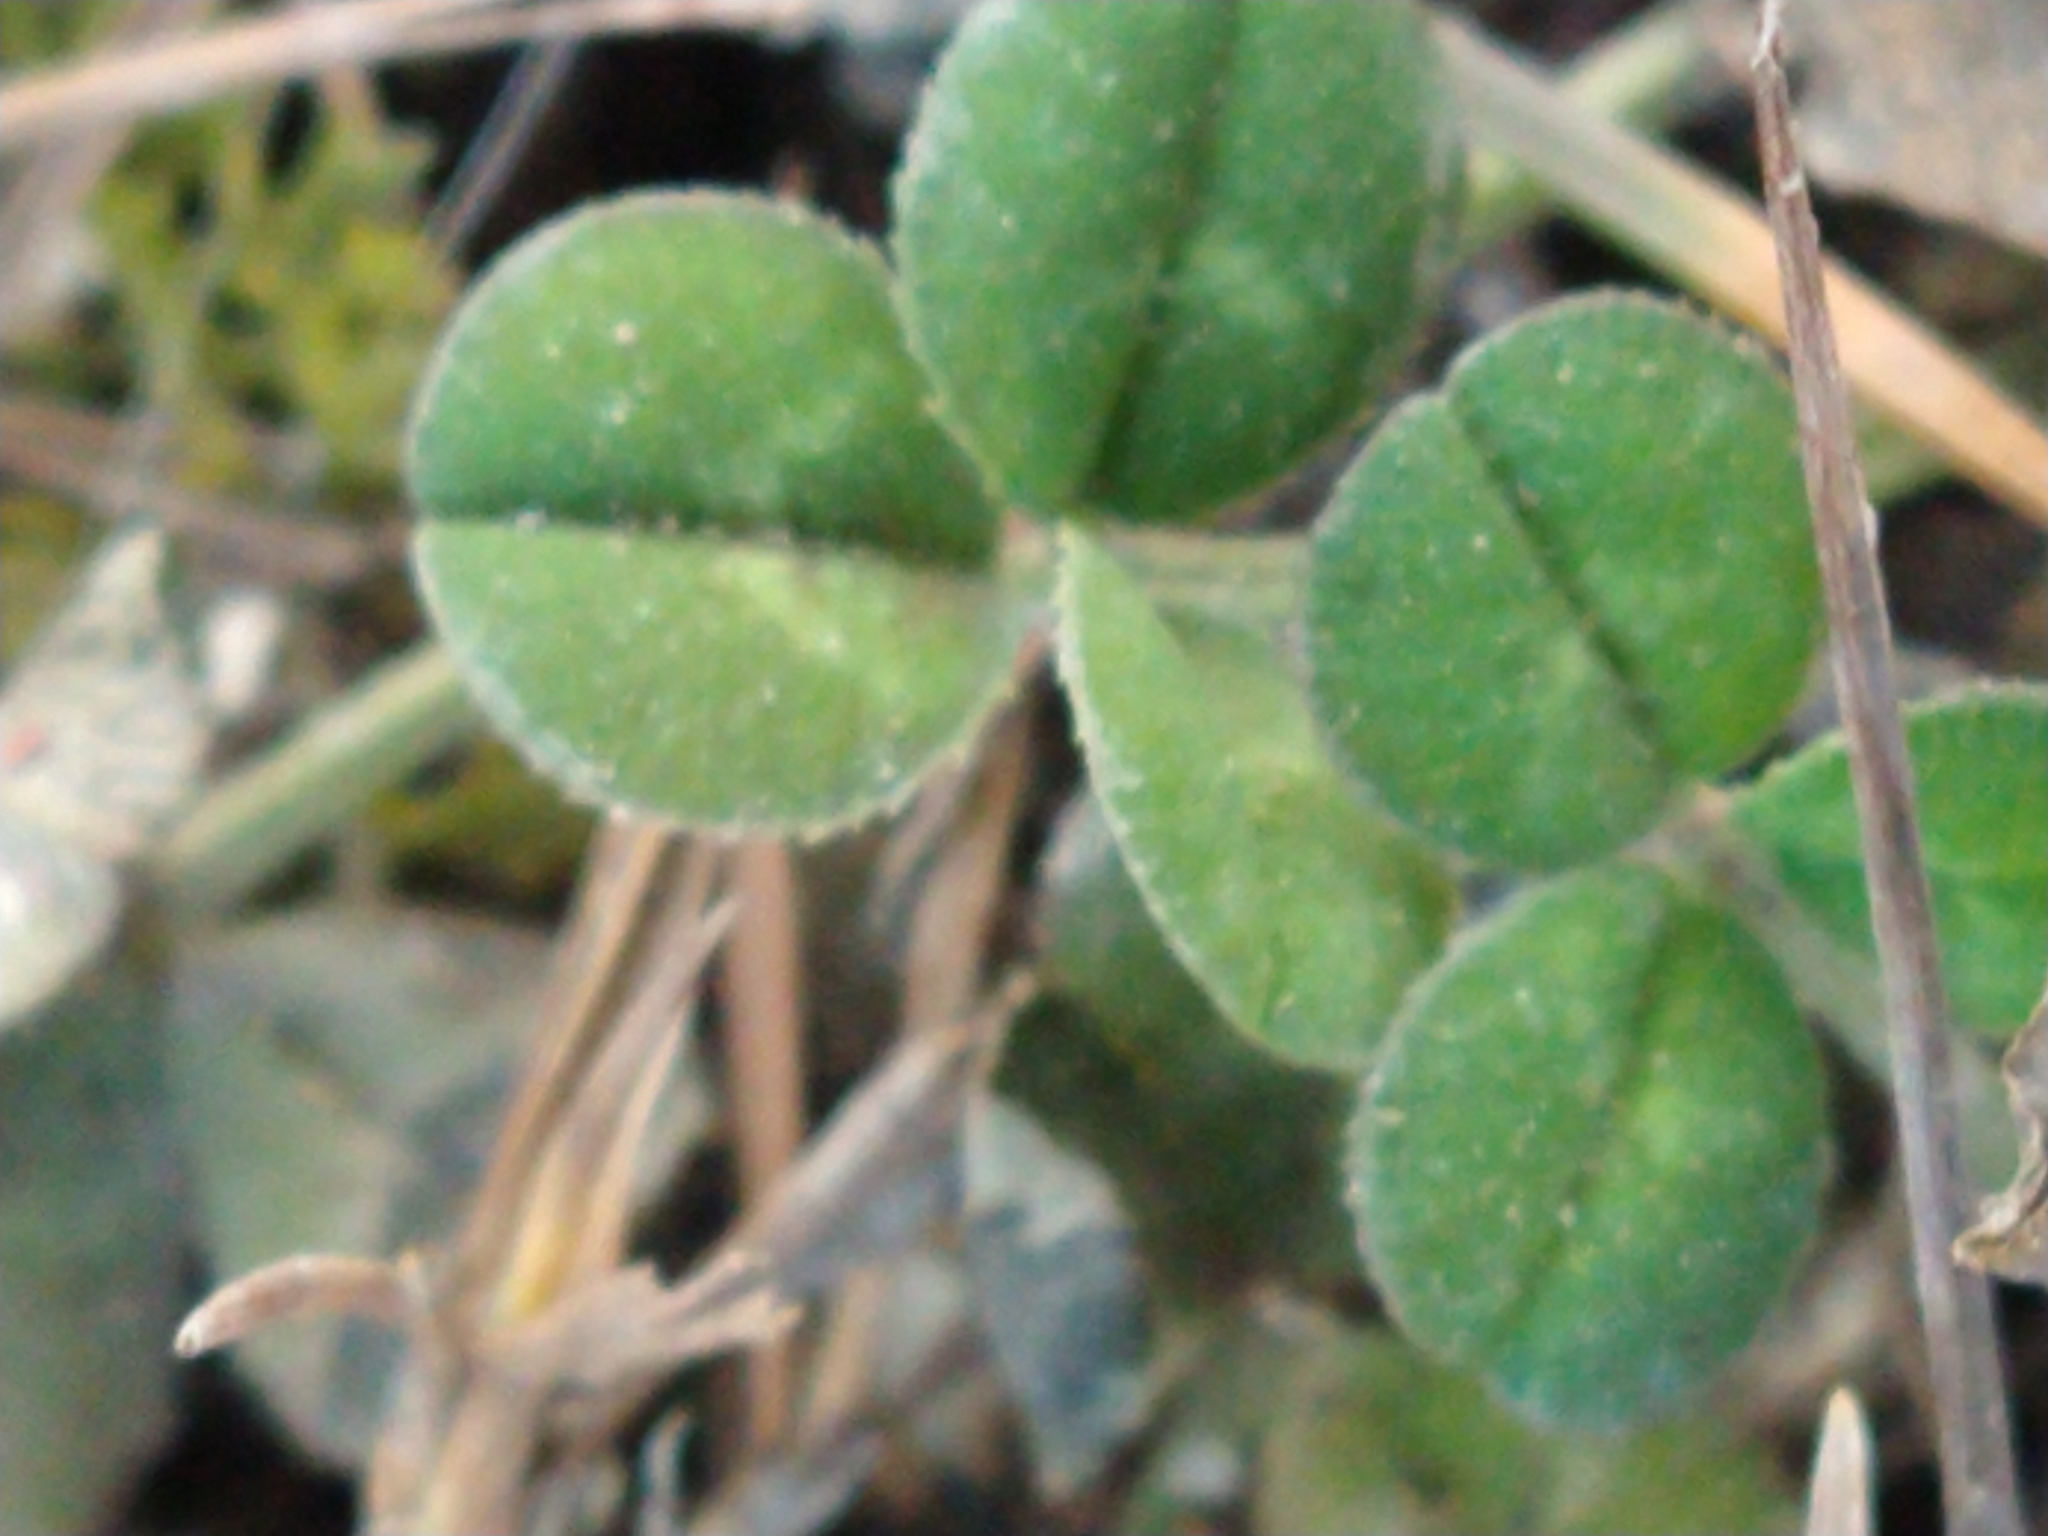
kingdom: Plantae
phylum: Tracheophyta
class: Magnoliopsida
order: Fabales
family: Fabaceae
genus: Trifolium
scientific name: Trifolium repens
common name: White clover
